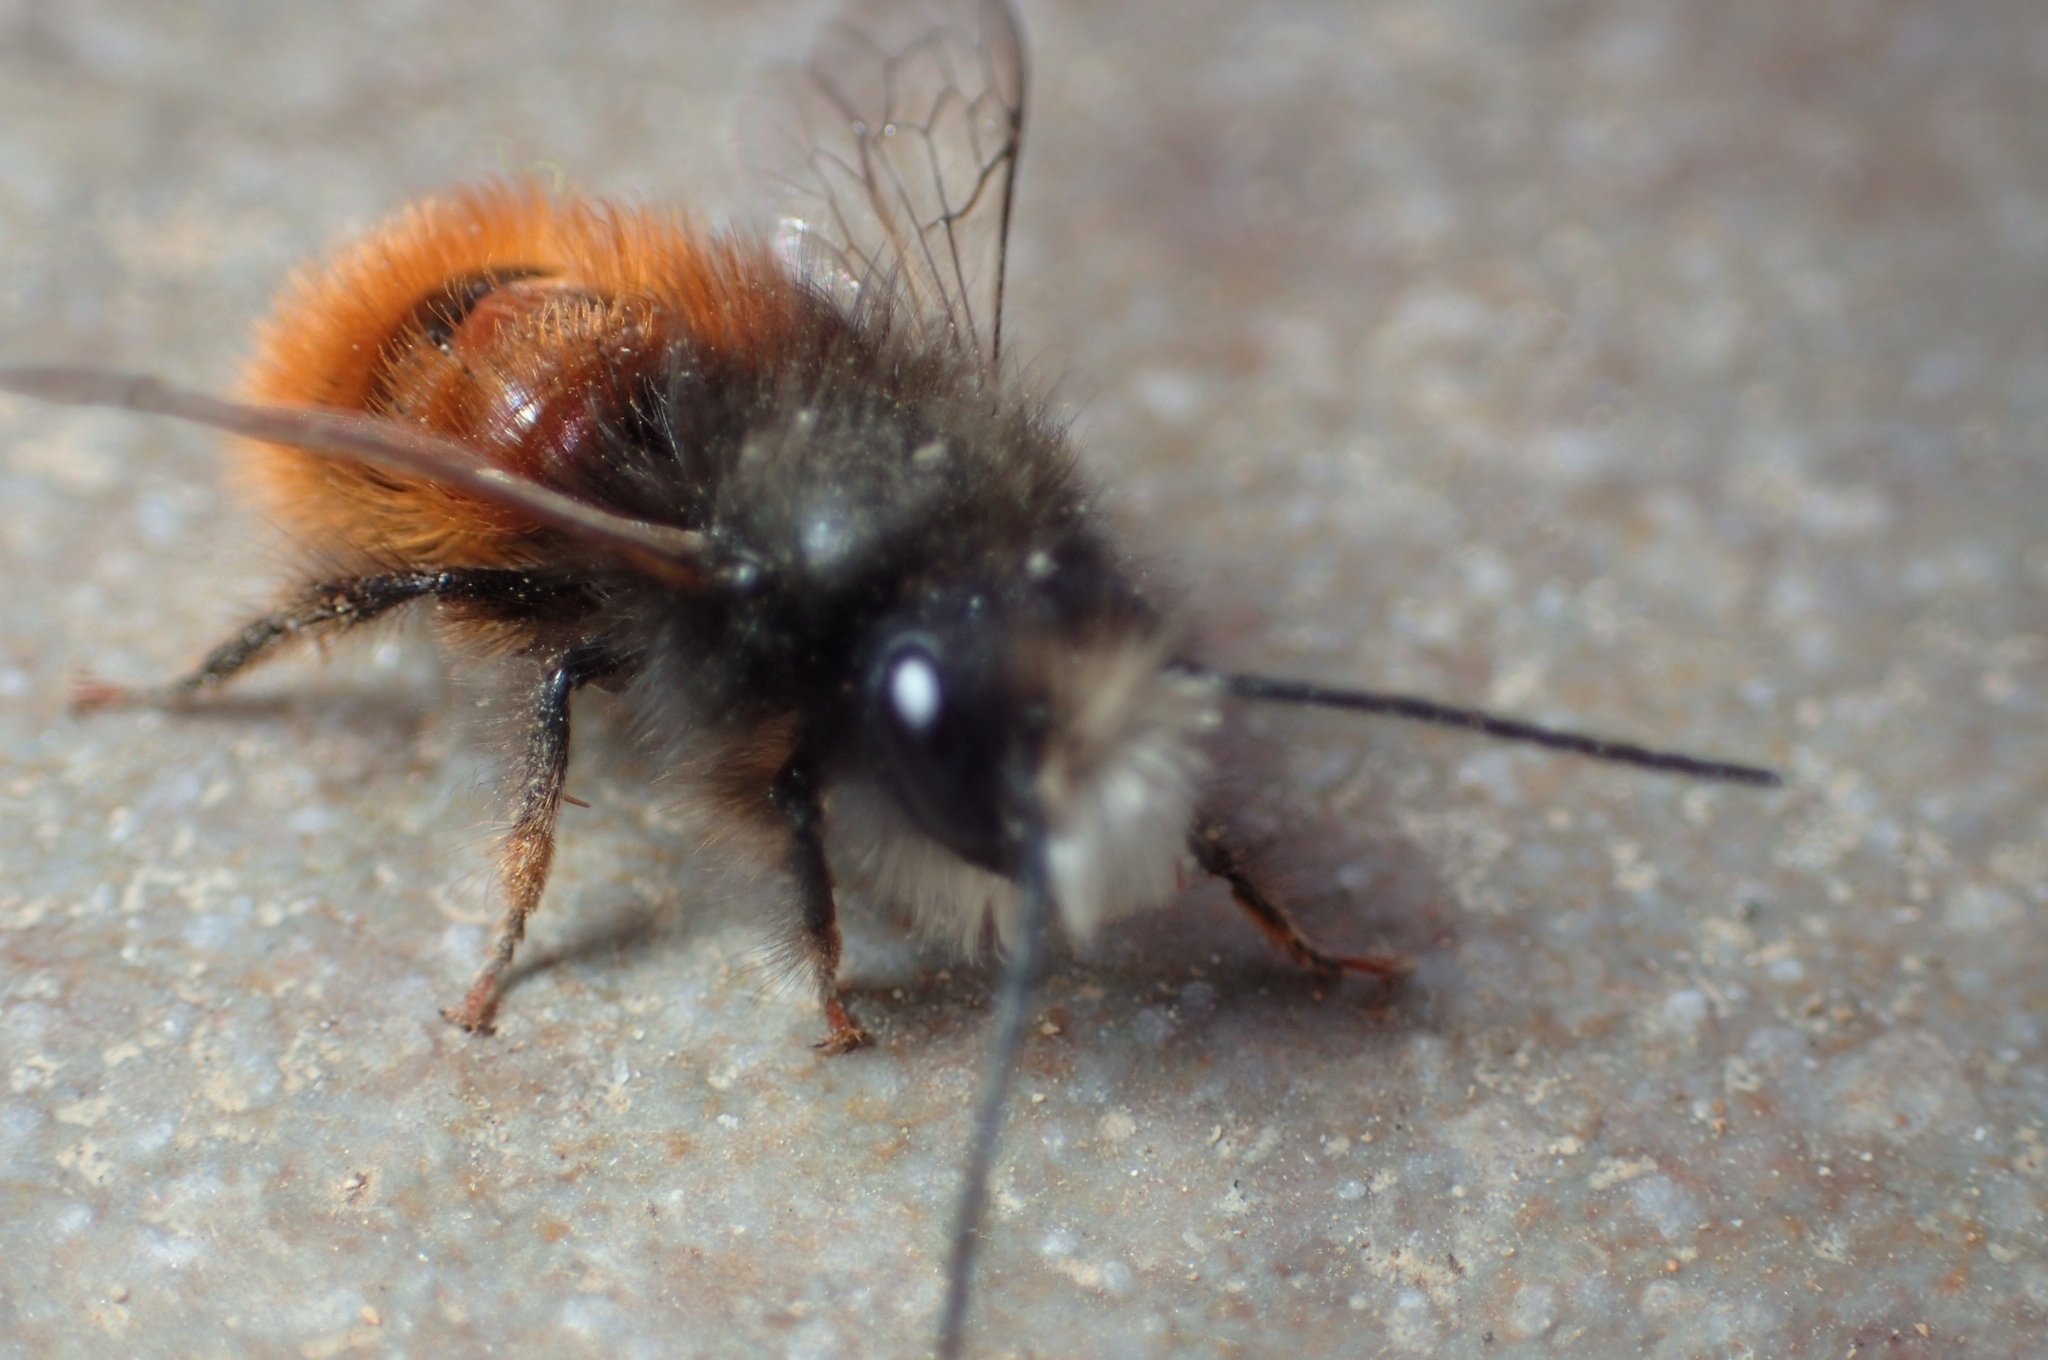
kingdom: Animalia
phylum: Arthropoda
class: Insecta
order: Hymenoptera
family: Megachilidae
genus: Osmia
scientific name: Osmia cornuta
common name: Mason bee
